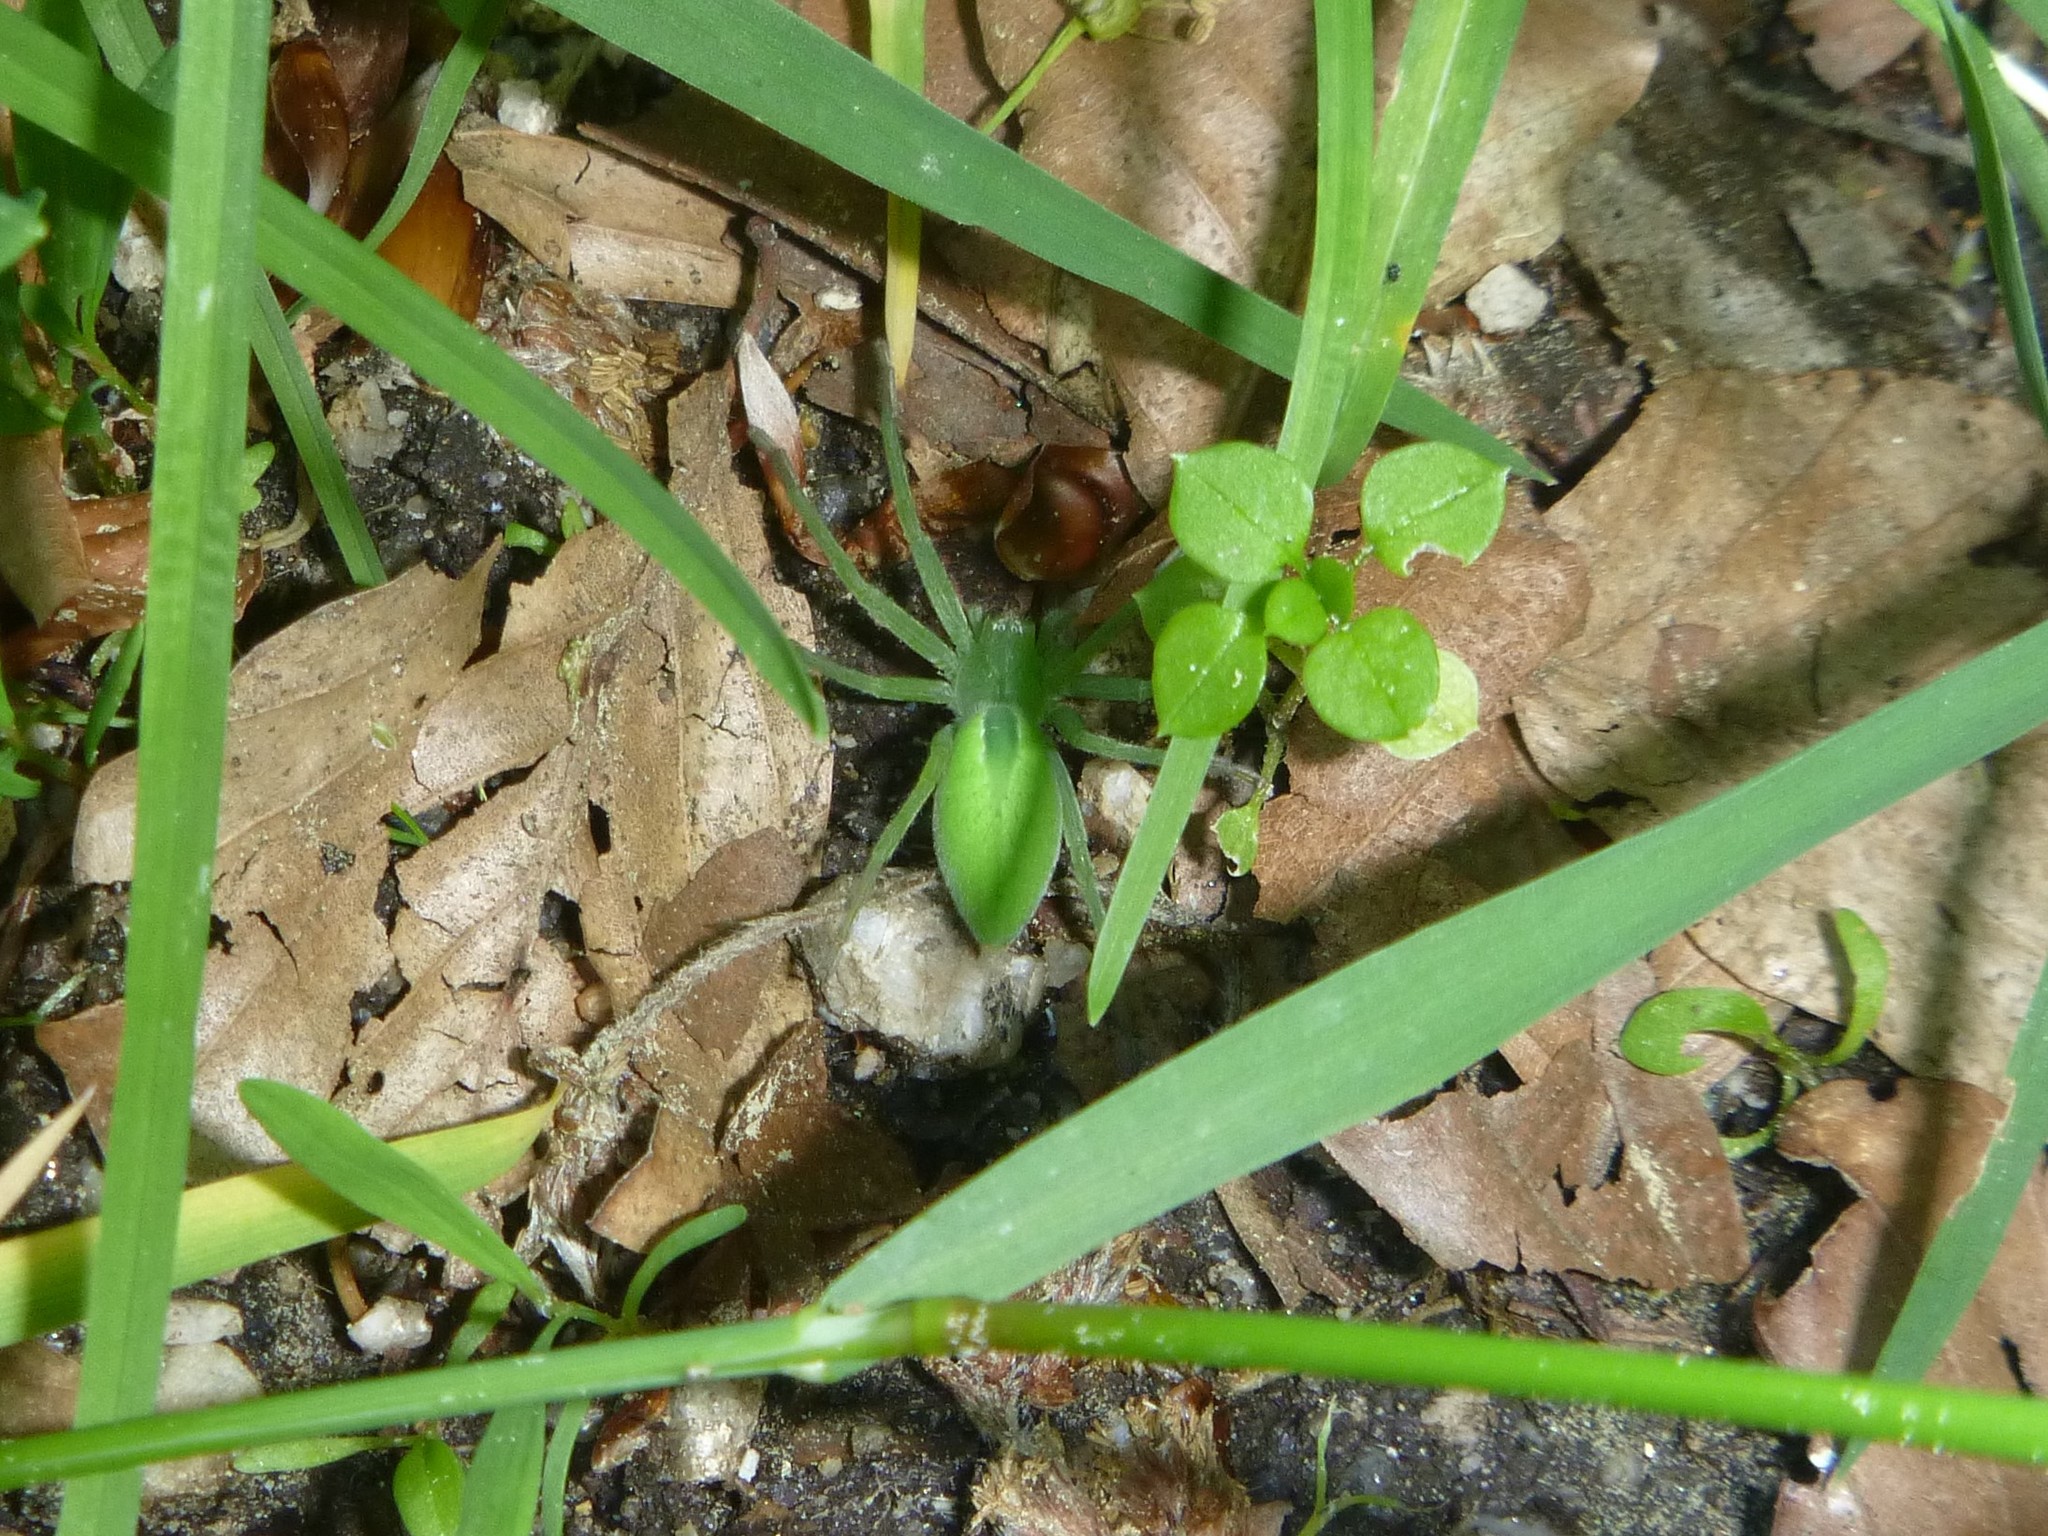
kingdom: Animalia
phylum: Arthropoda
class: Arachnida
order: Araneae
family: Sparassidae
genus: Micrommata
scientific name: Micrommata virescens
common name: Green spider
